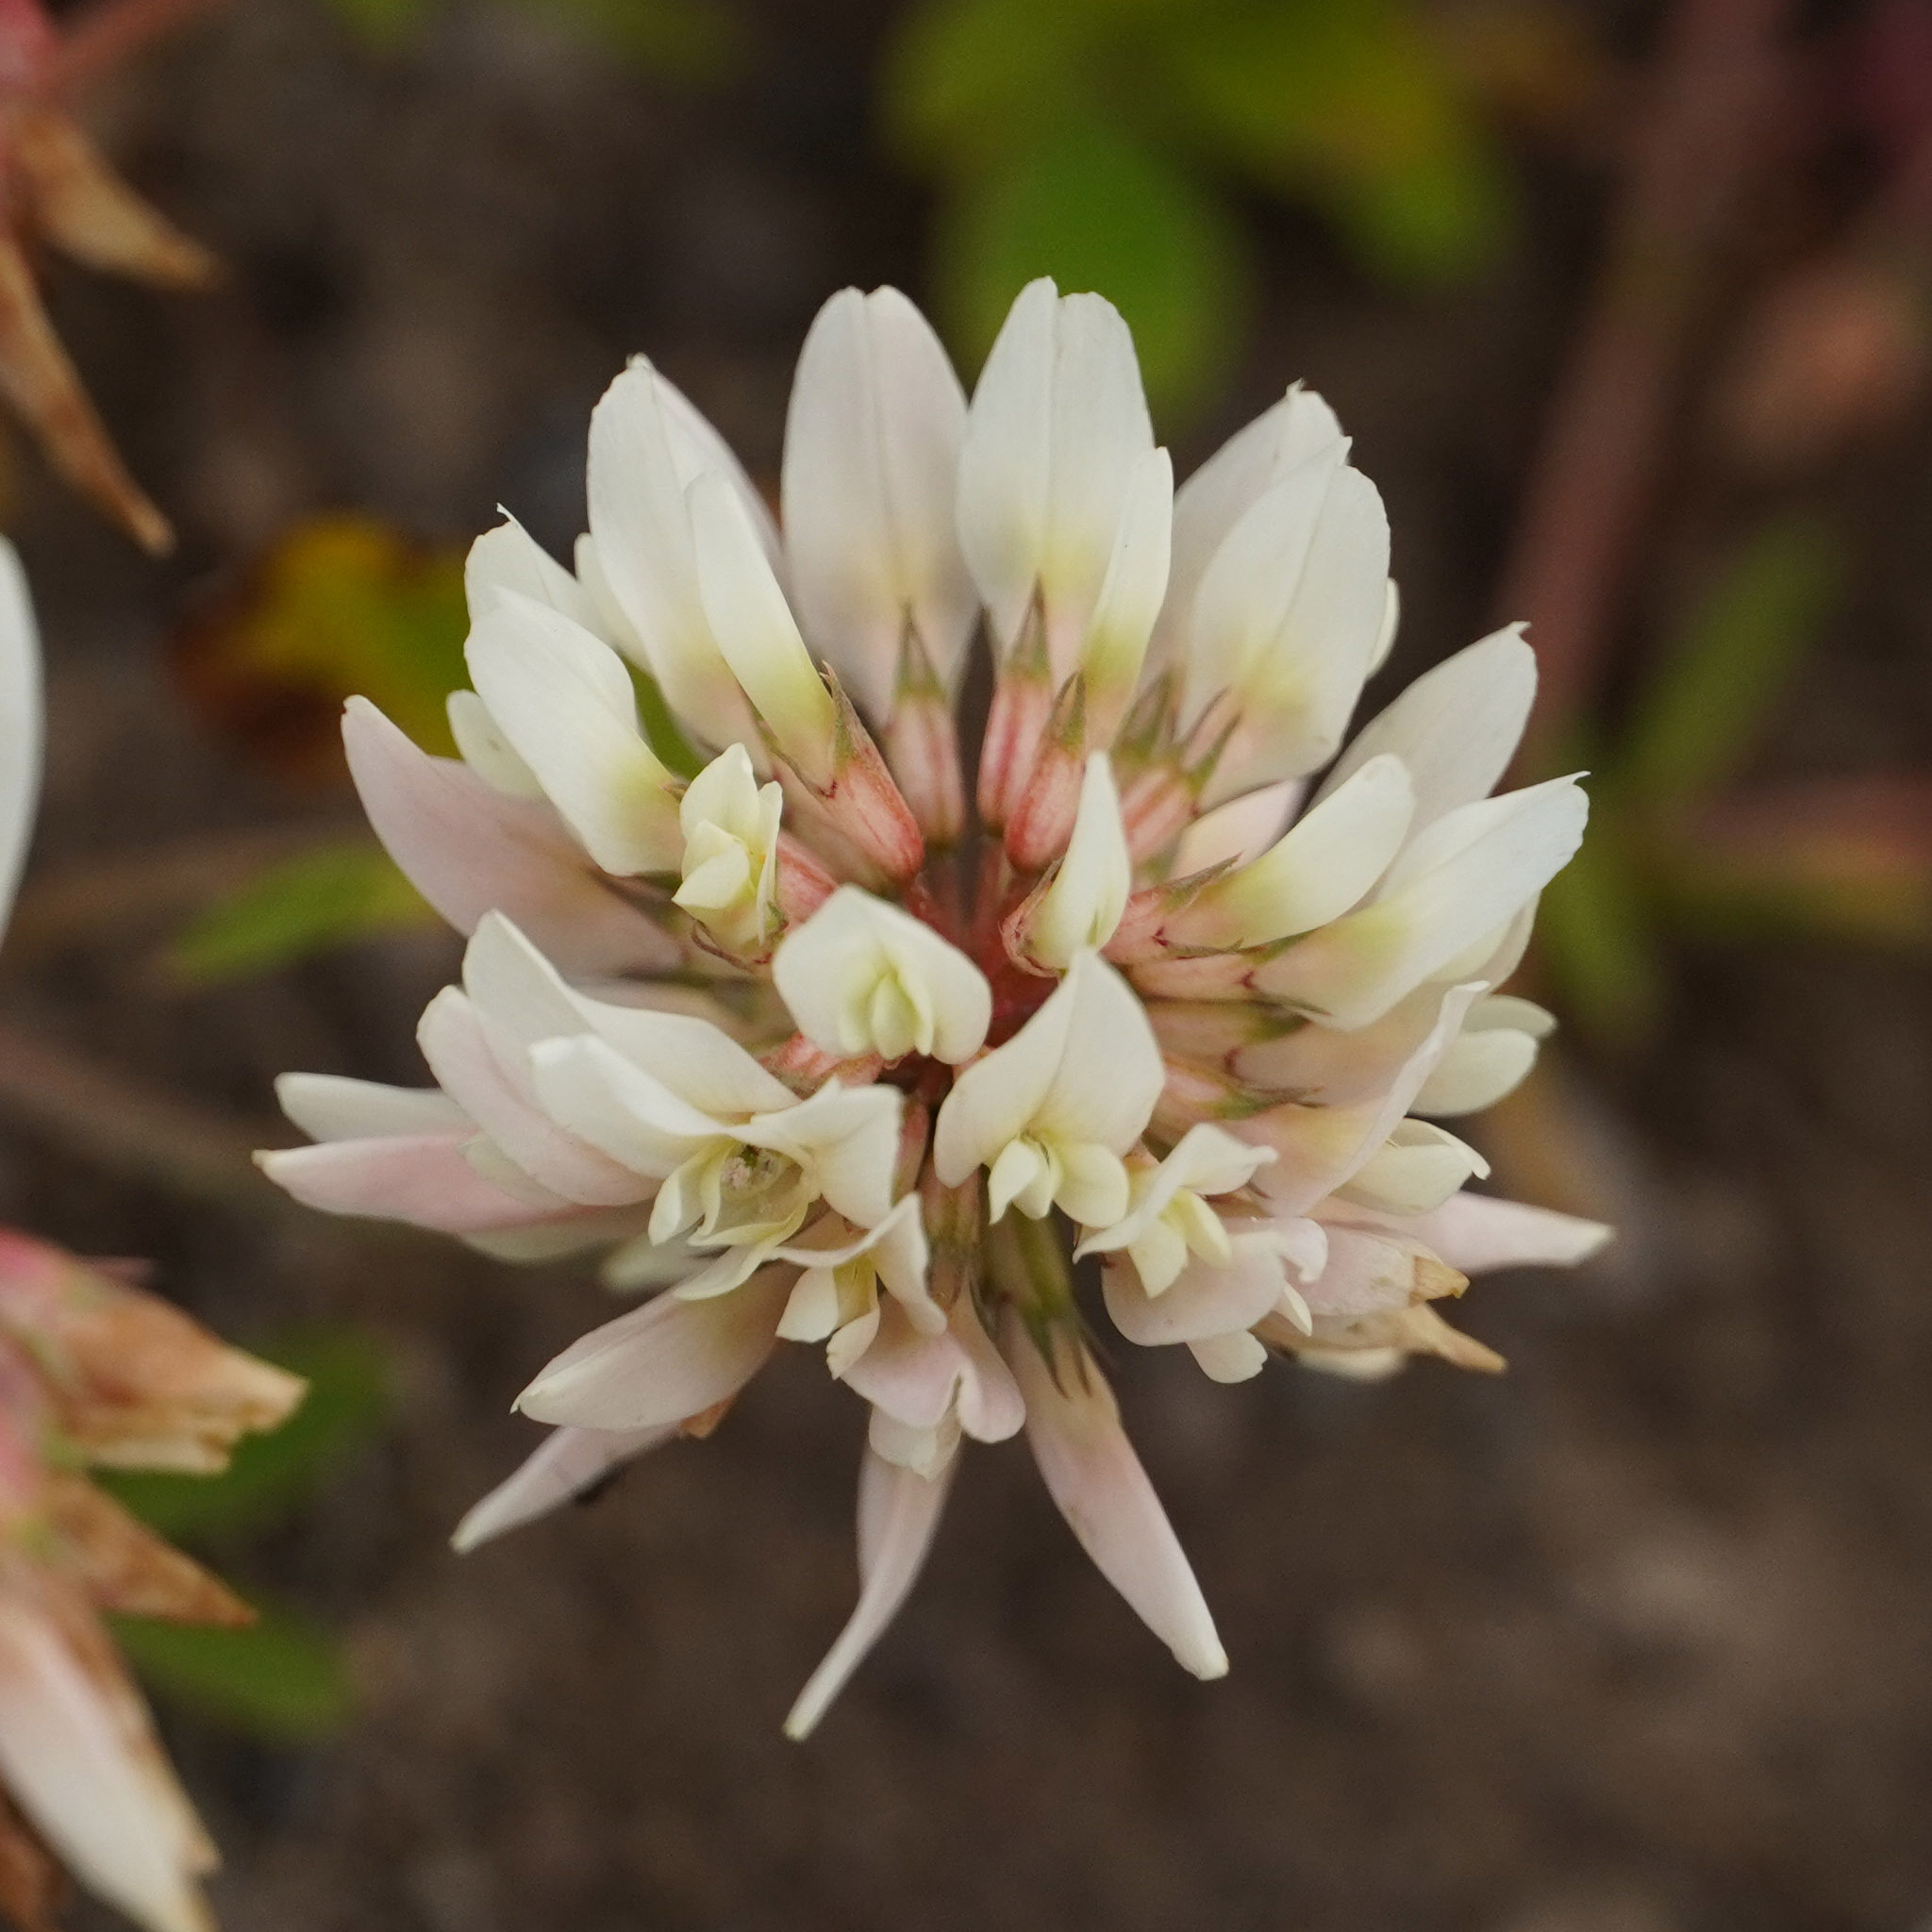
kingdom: Plantae
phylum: Tracheophyta
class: Magnoliopsida
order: Fabales
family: Fabaceae
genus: Trifolium
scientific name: Trifolium repens
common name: White clover
